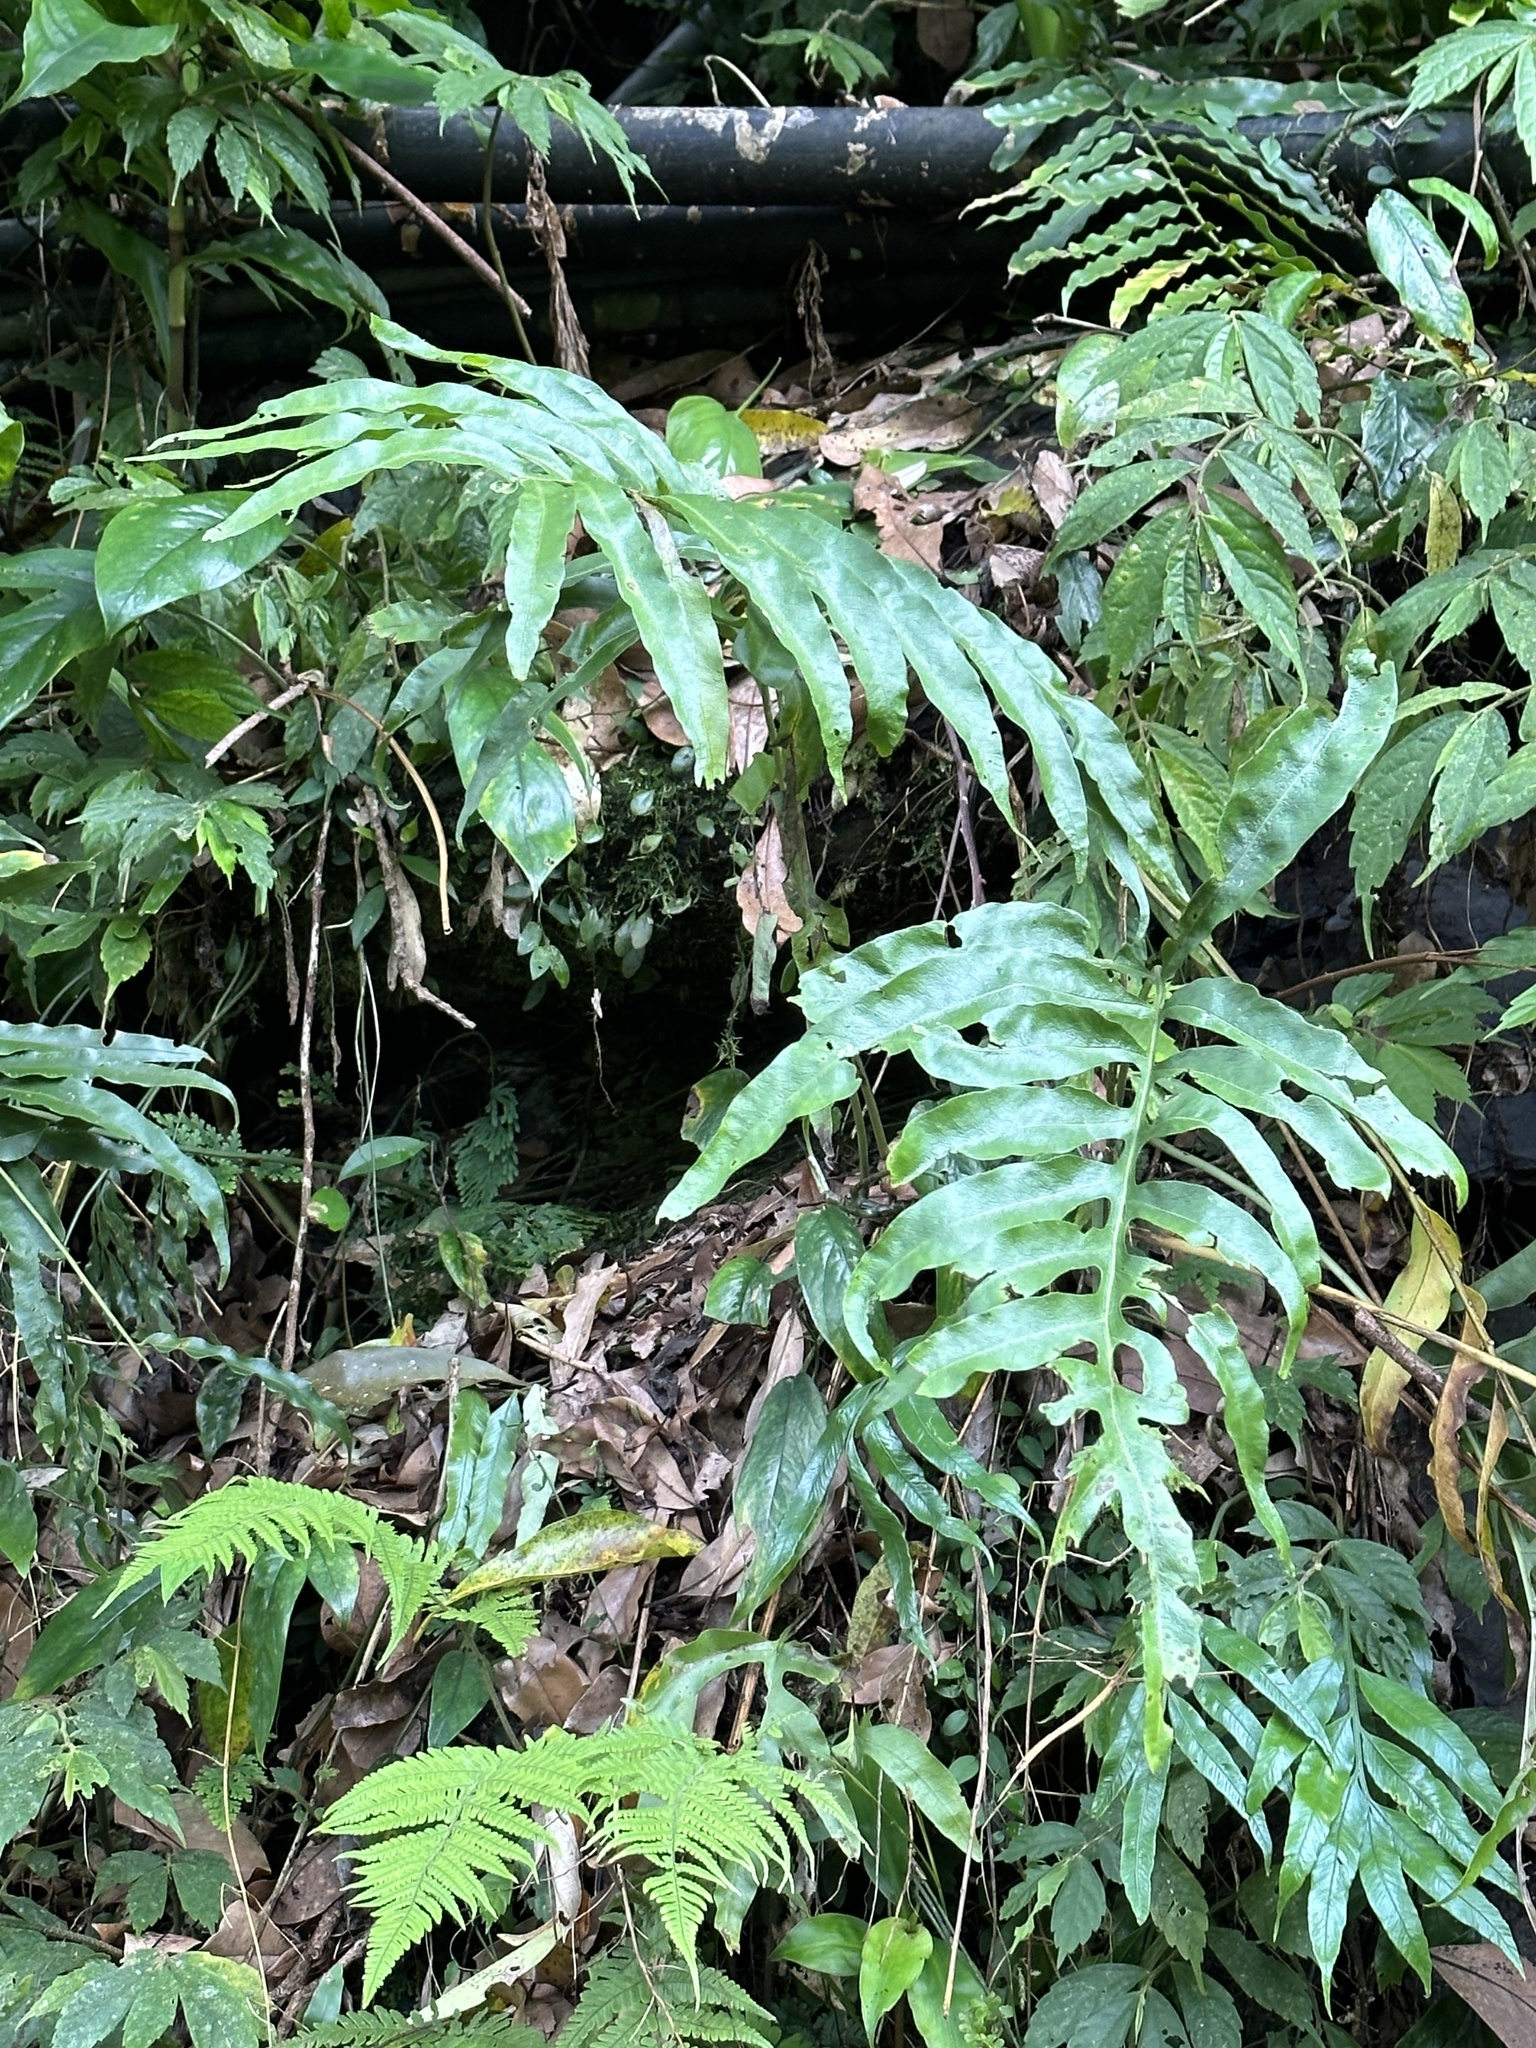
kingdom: Plantae
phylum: Tracheophyta
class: Polypodiopsida
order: Polypodiales
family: Polypodiaceae
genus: Leptochilus
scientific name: Leptochilus ellipticus
